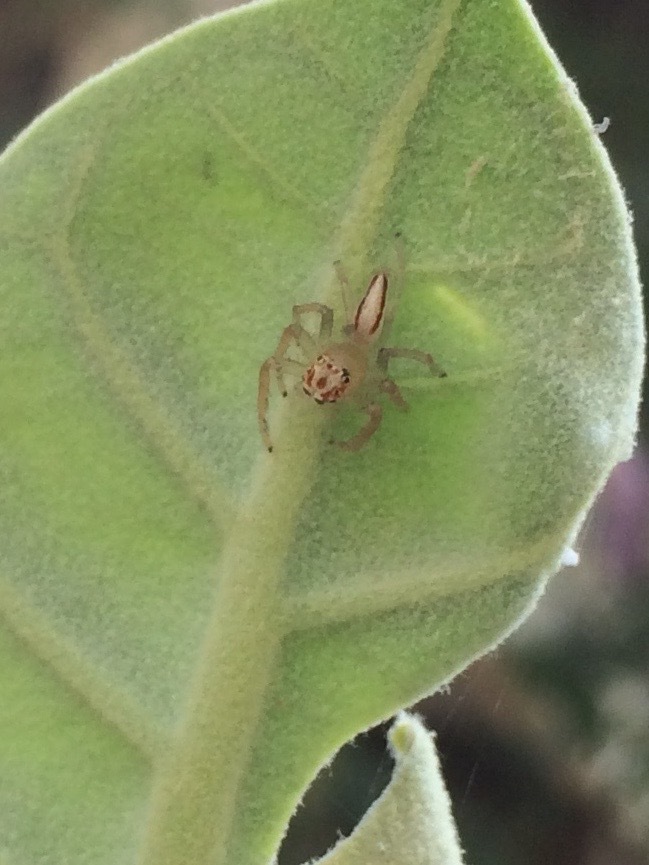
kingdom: Animalia
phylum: Arthropoda
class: Arachnida
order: Araneae
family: Salticidae
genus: Telamonia
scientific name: Telamonia dimidiata
